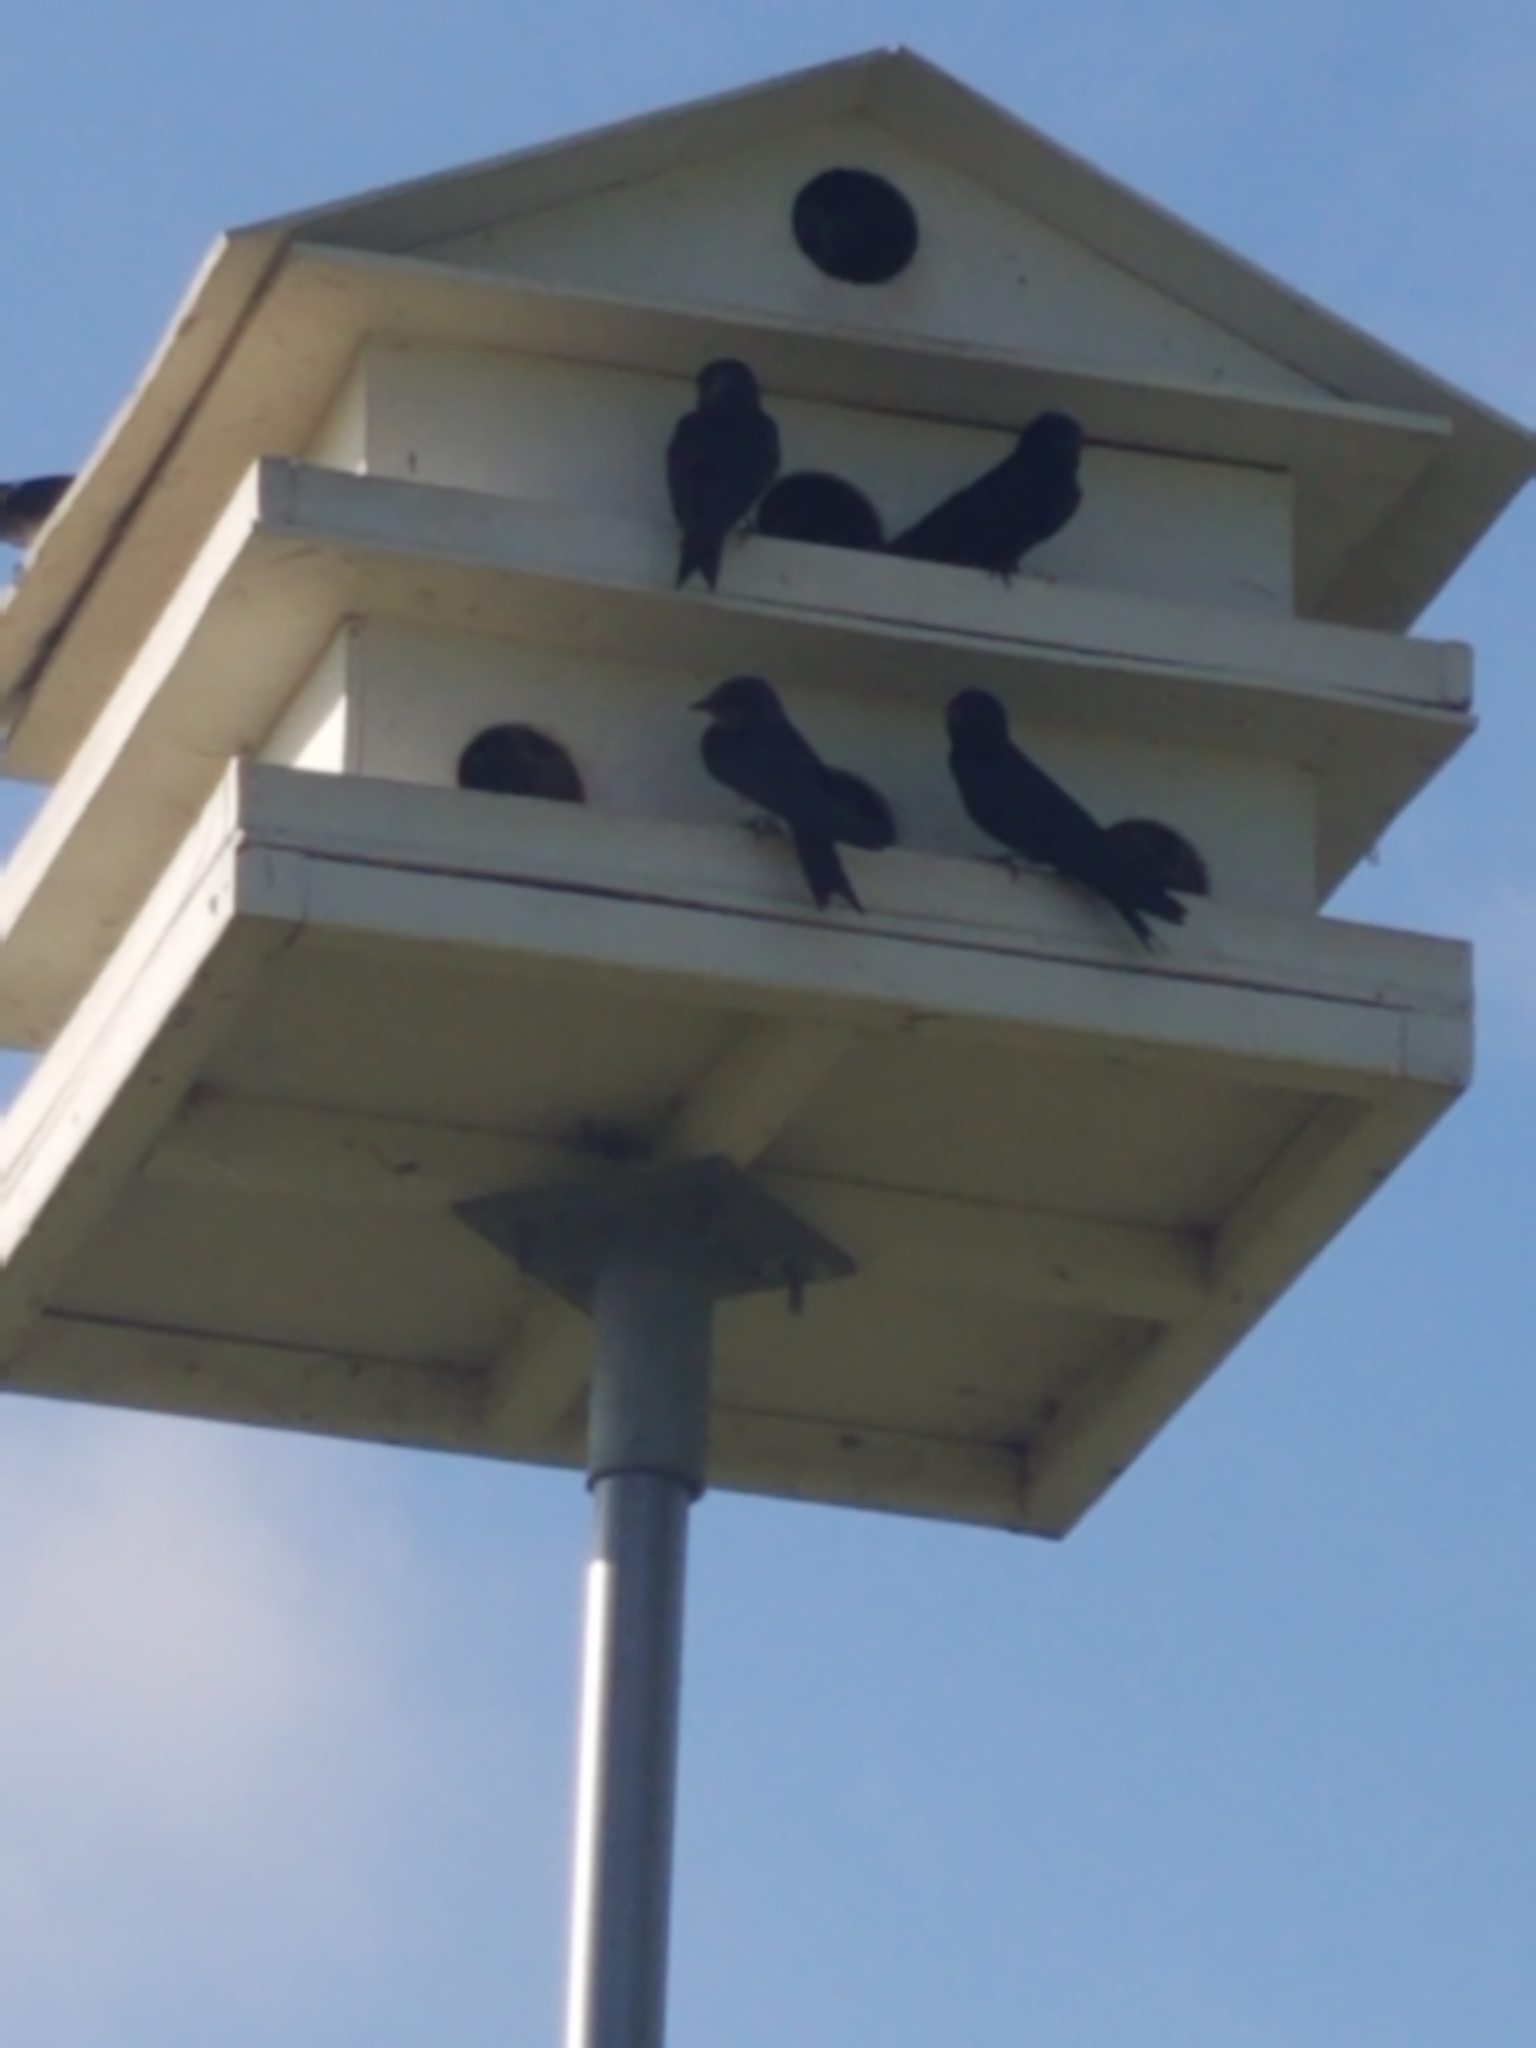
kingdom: Animalia
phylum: Chordata
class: Aves
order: Passeriformes
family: Hirundinidae
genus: Progne
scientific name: Progne subis
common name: Purple martin
